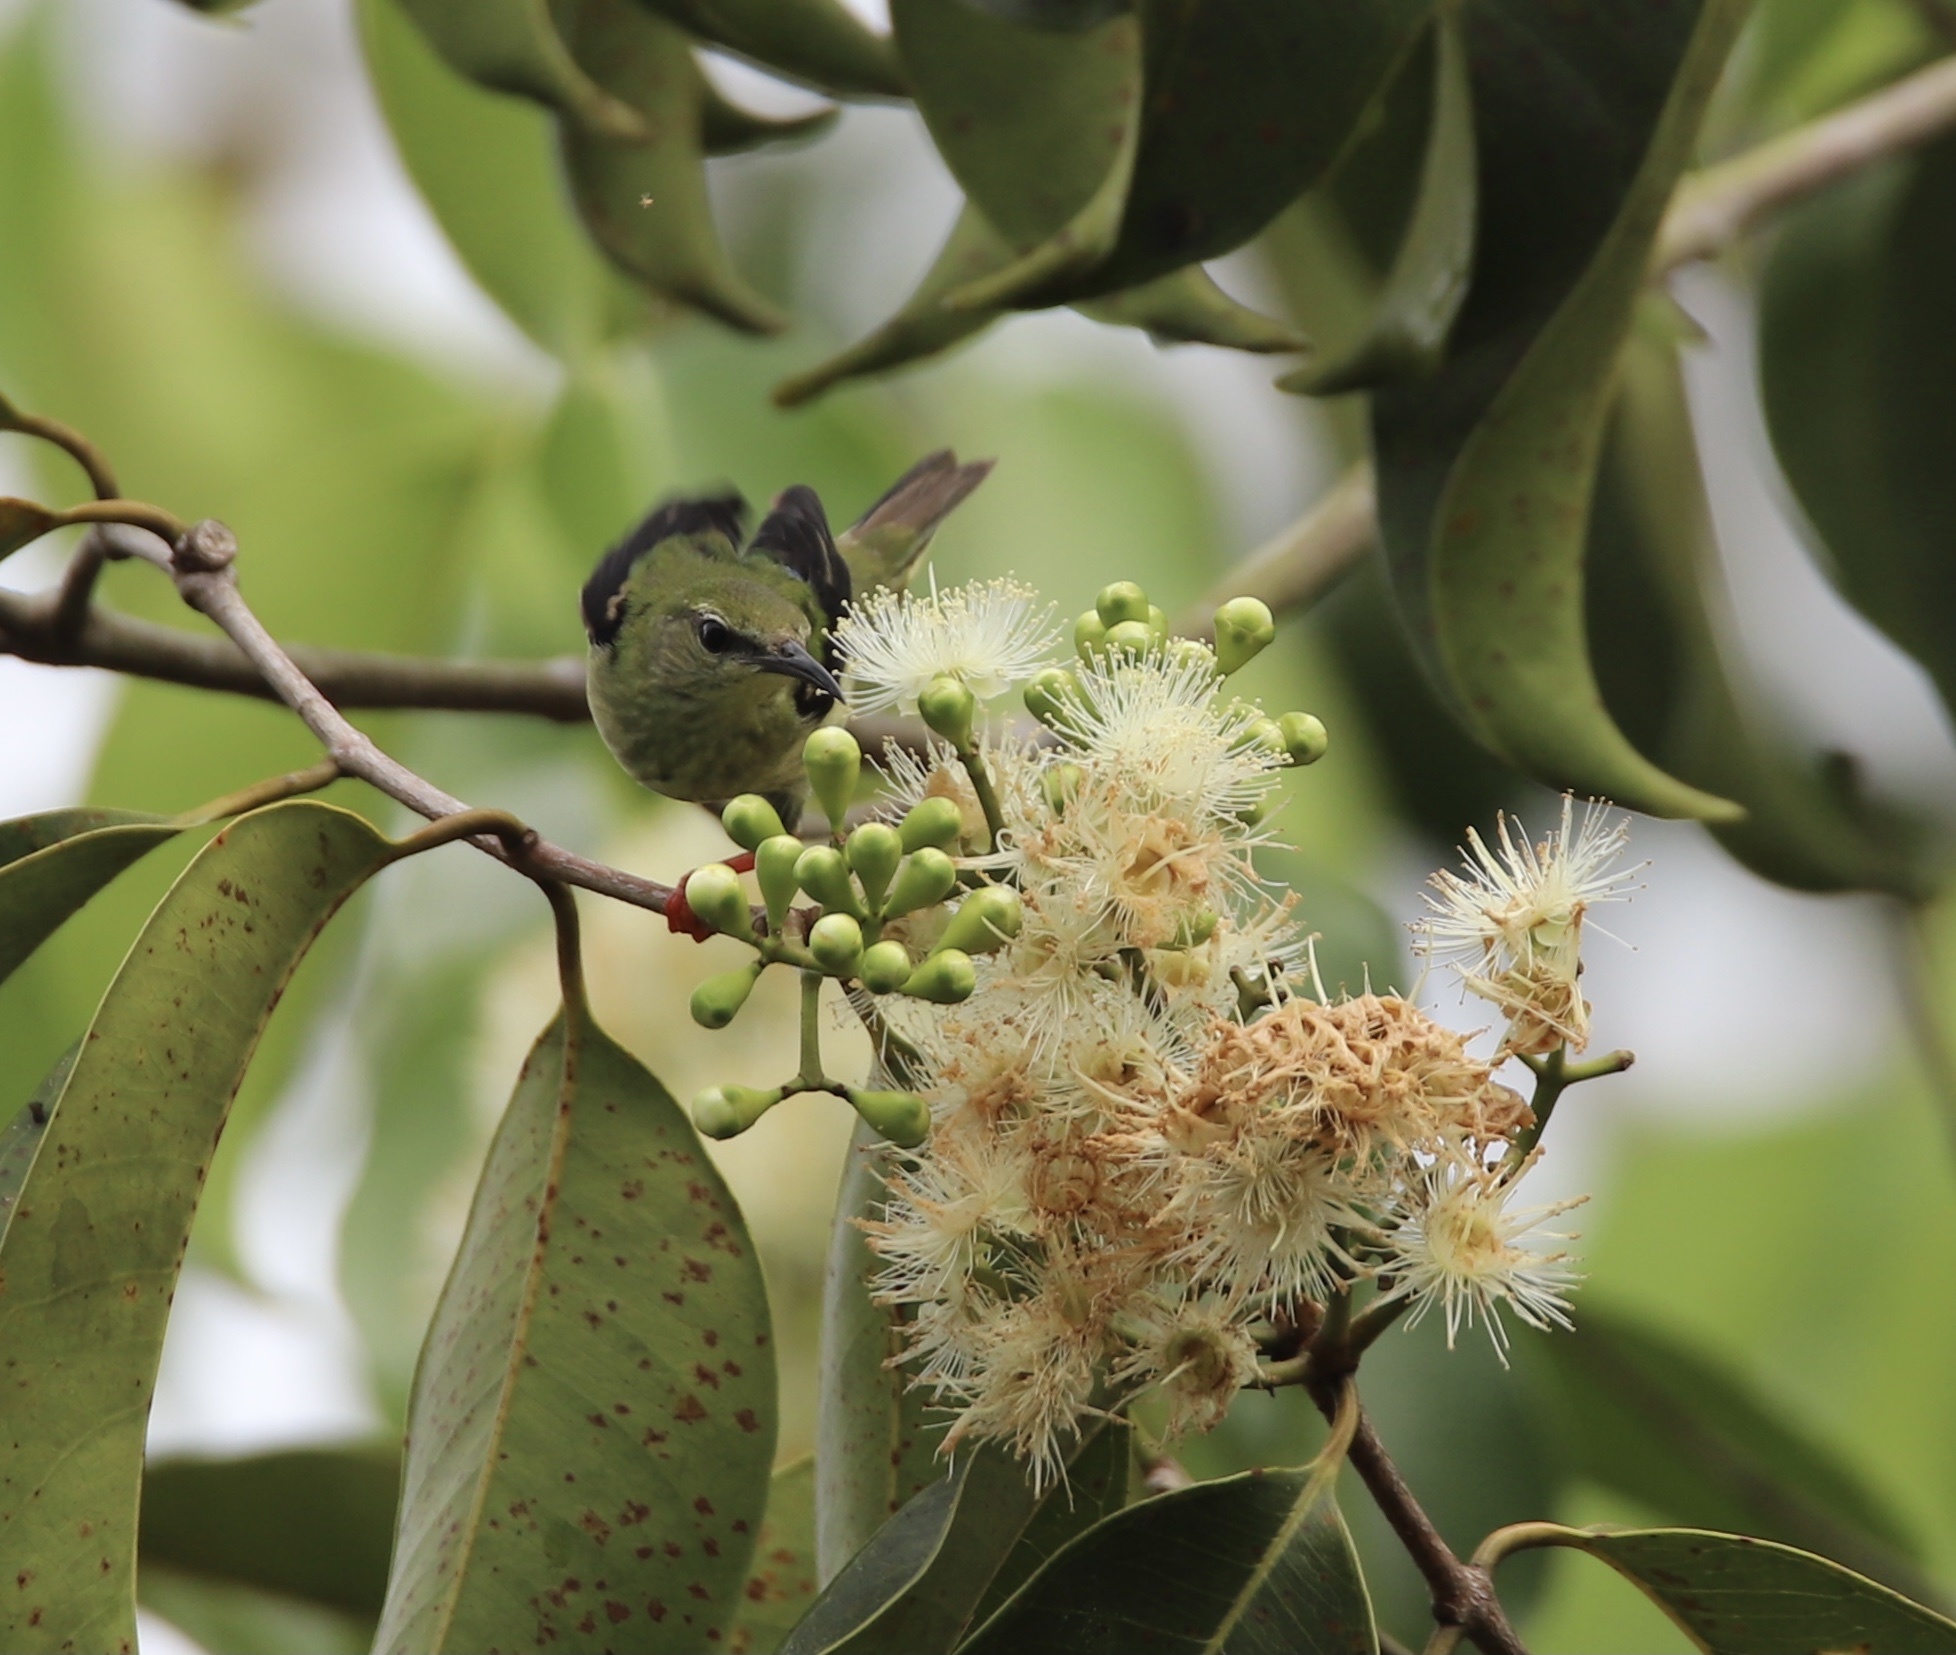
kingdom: Animalia
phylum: Chordata
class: Aves
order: Passeriformes
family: Thraupidae
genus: Cyanerpes
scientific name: Cyanerpes cyaneus
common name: Red-legged honeycreeper
